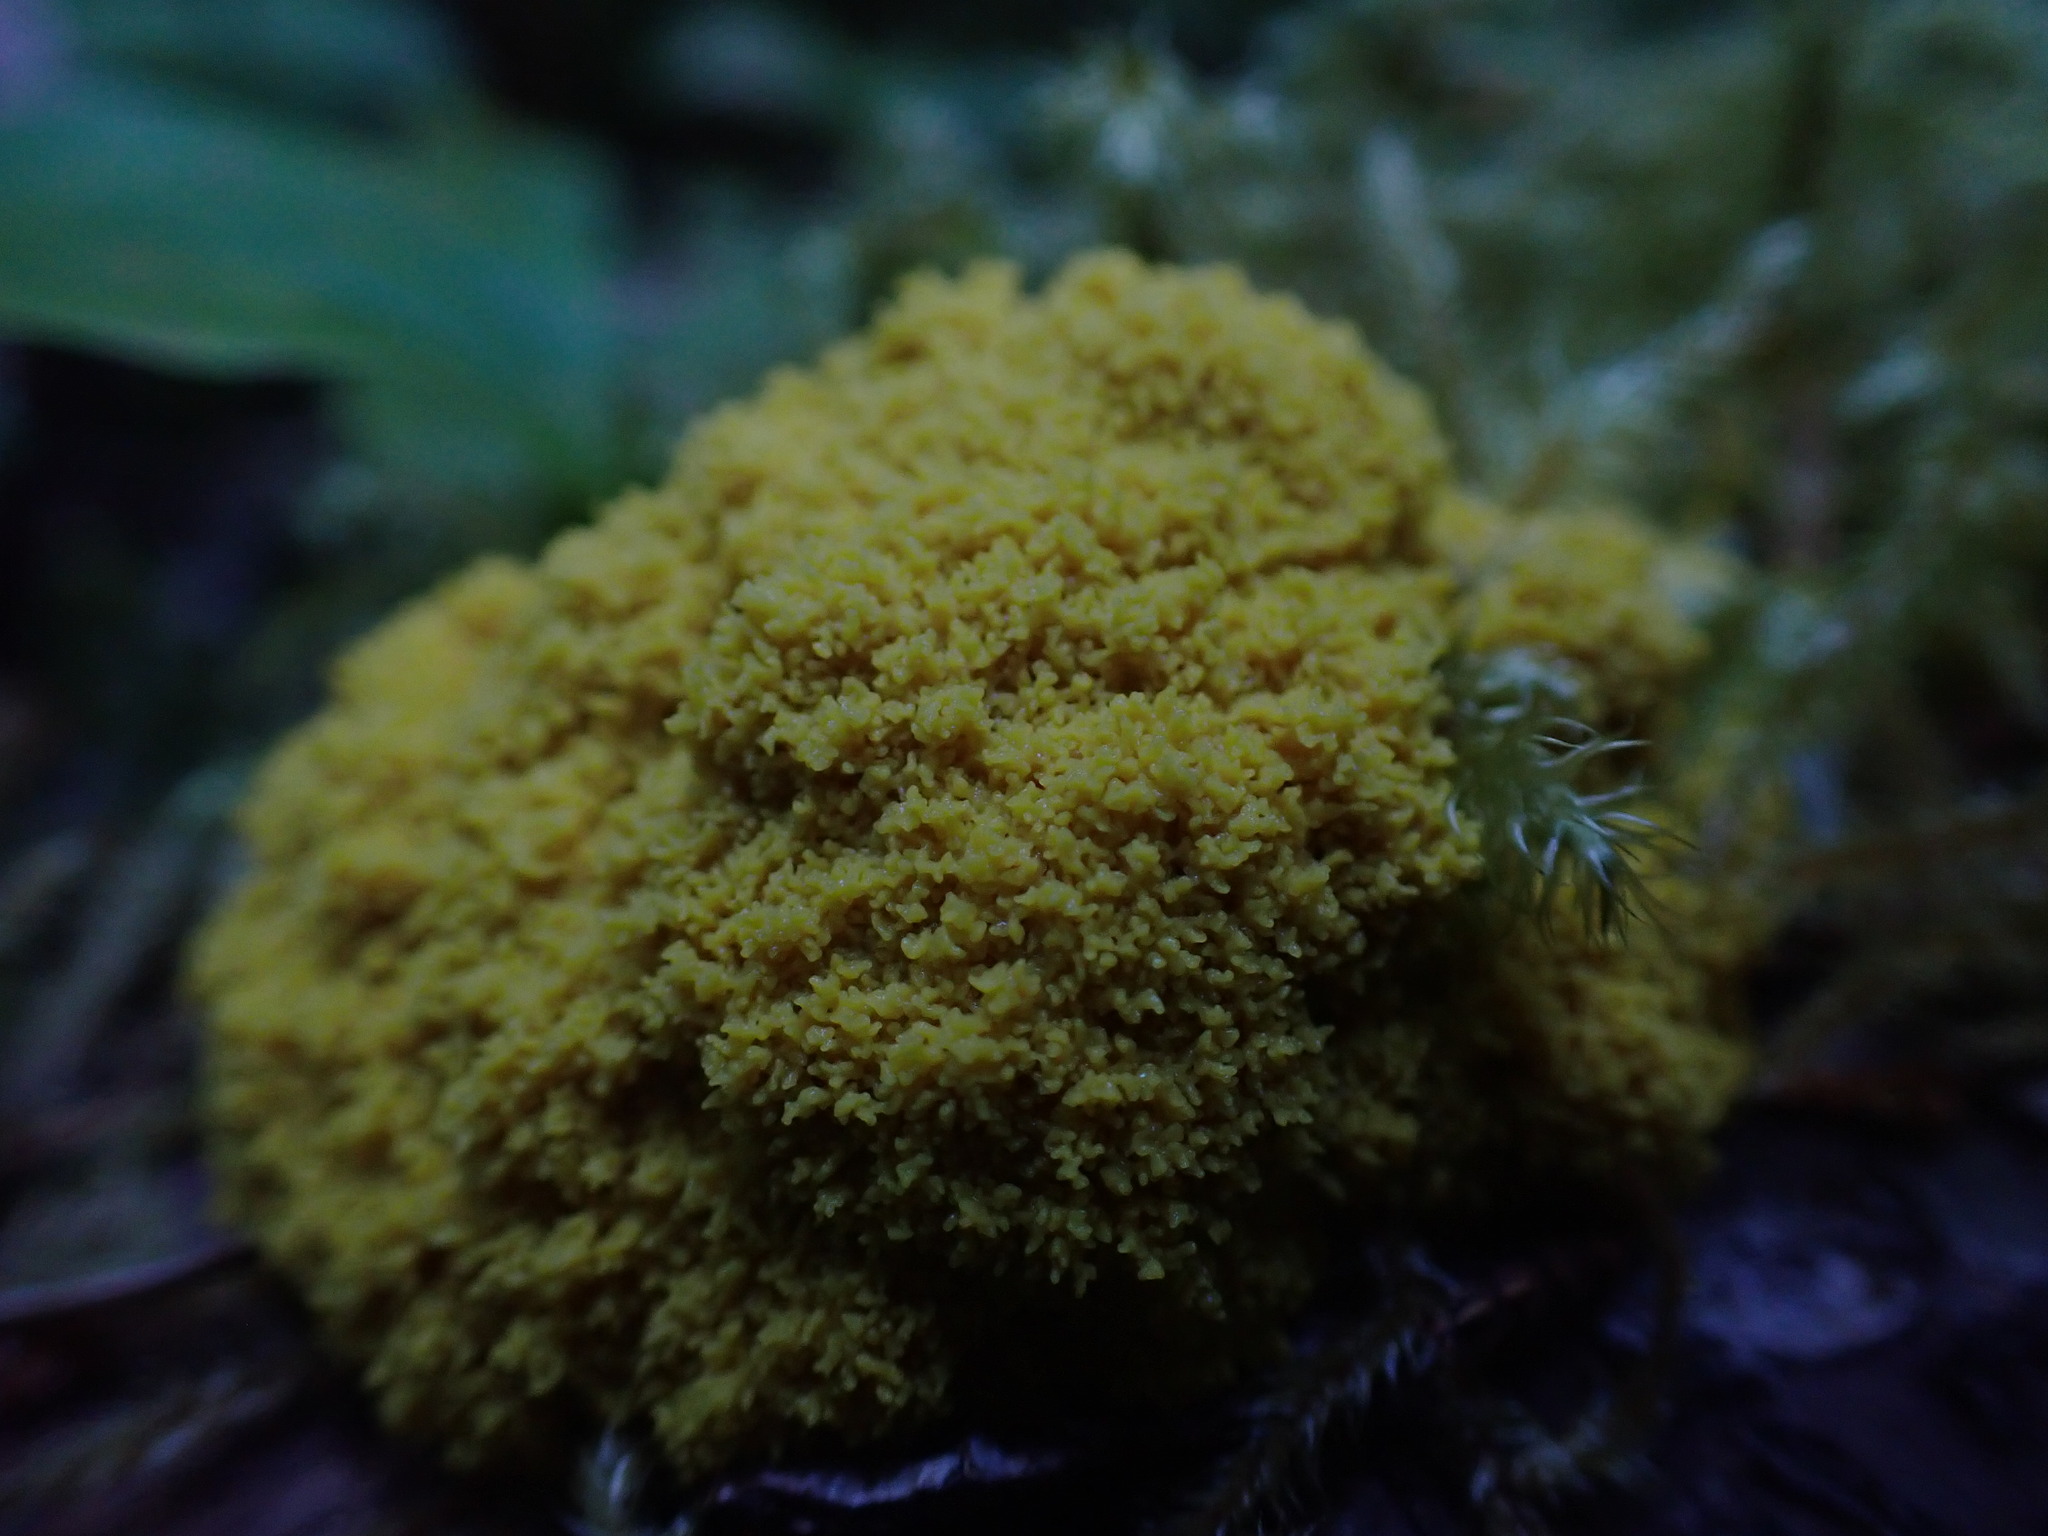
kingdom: Protozoa
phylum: Mycetozoa
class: Myxomycetes
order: Physarales
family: Physaraceae
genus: Fuligo
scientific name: Fuligo septica
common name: Dog vomit slime mold
